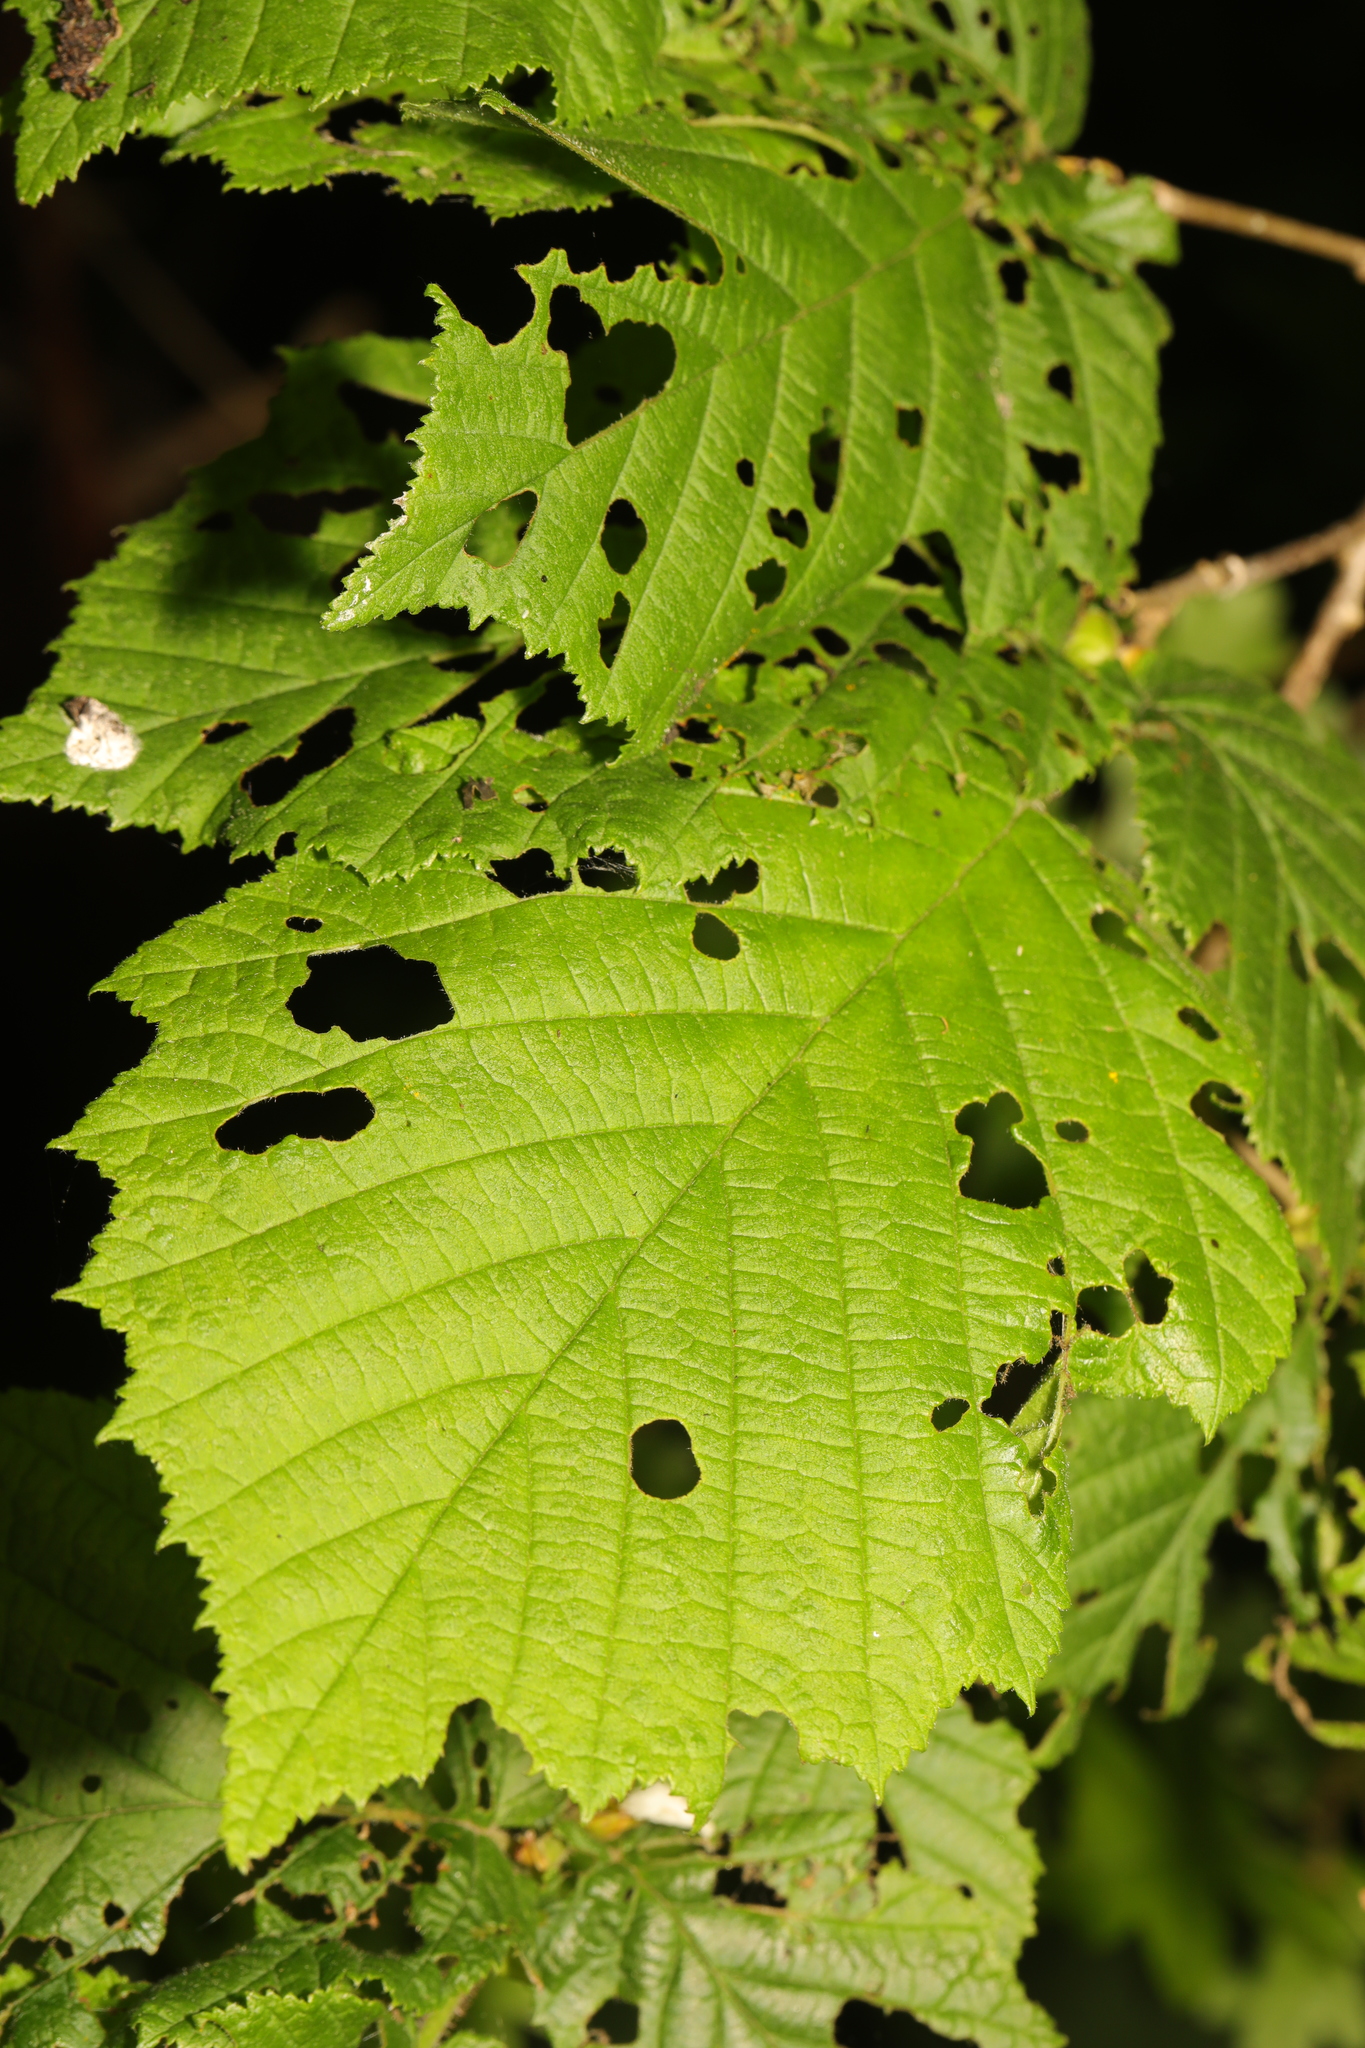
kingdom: Plantae
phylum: Tracheophyta
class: Magnoliopsida
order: Fagales
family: Betulaceae
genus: Corylus
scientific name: Corylus avellana
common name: European hazel
